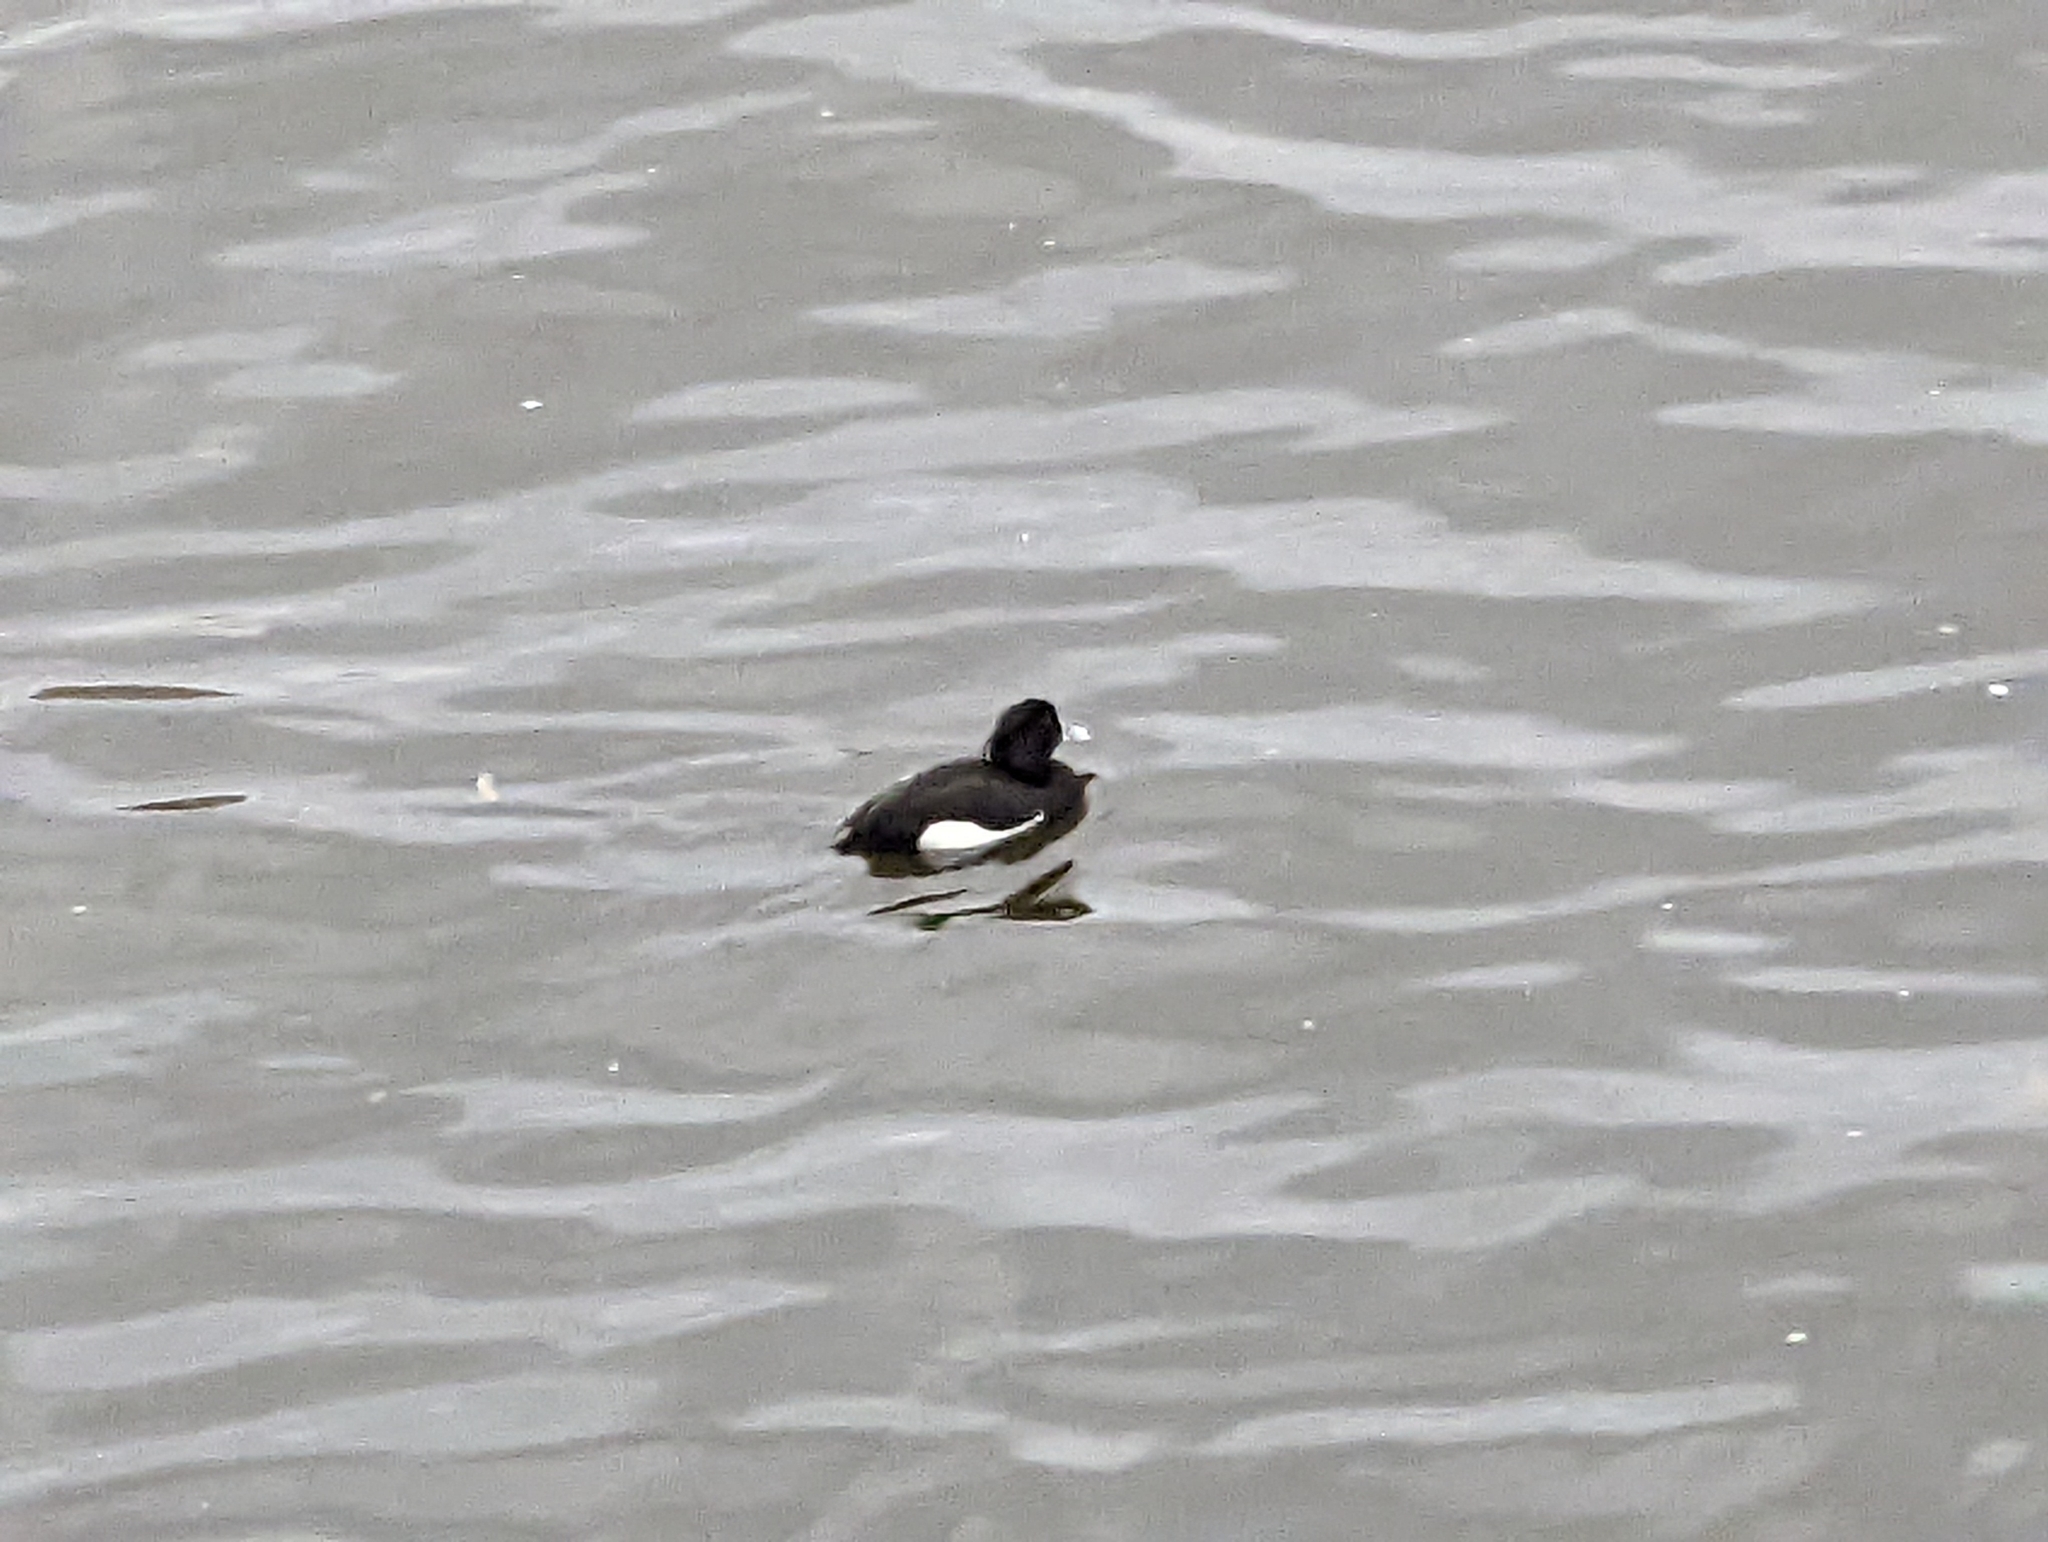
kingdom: Animalia
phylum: Chordata
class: Aves
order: Anseriformes
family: Anatidae
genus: Aythya
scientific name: Aythya fuligula
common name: Tufted duck
